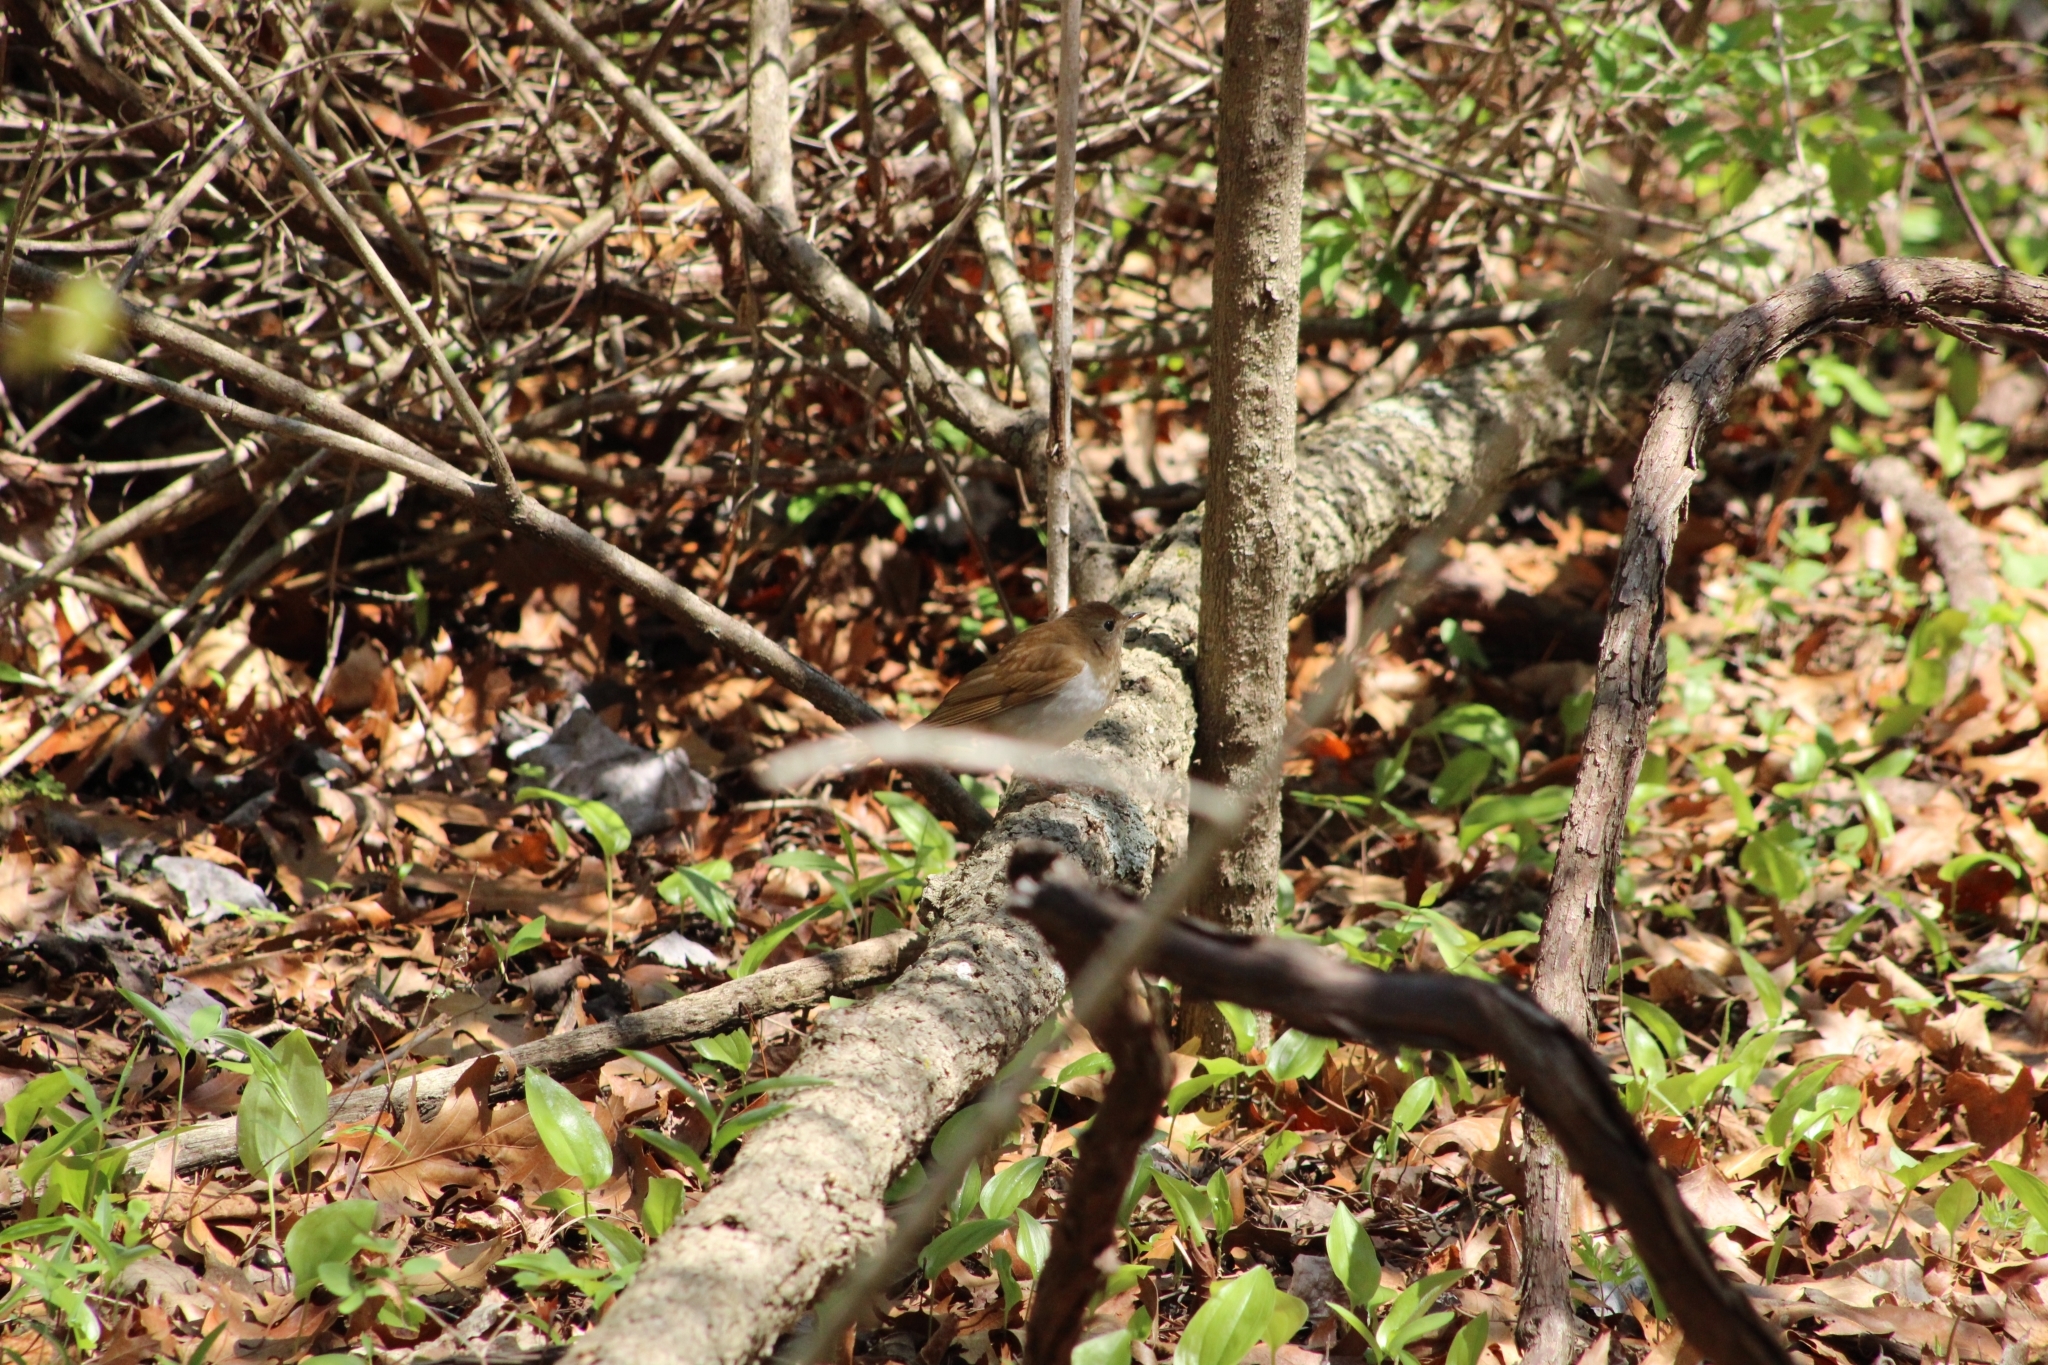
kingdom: Animalia
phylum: Chordata
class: Aves
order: Passeriformes
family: Turdidae
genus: Catharus
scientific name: Catharus fuscescens
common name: Veery
